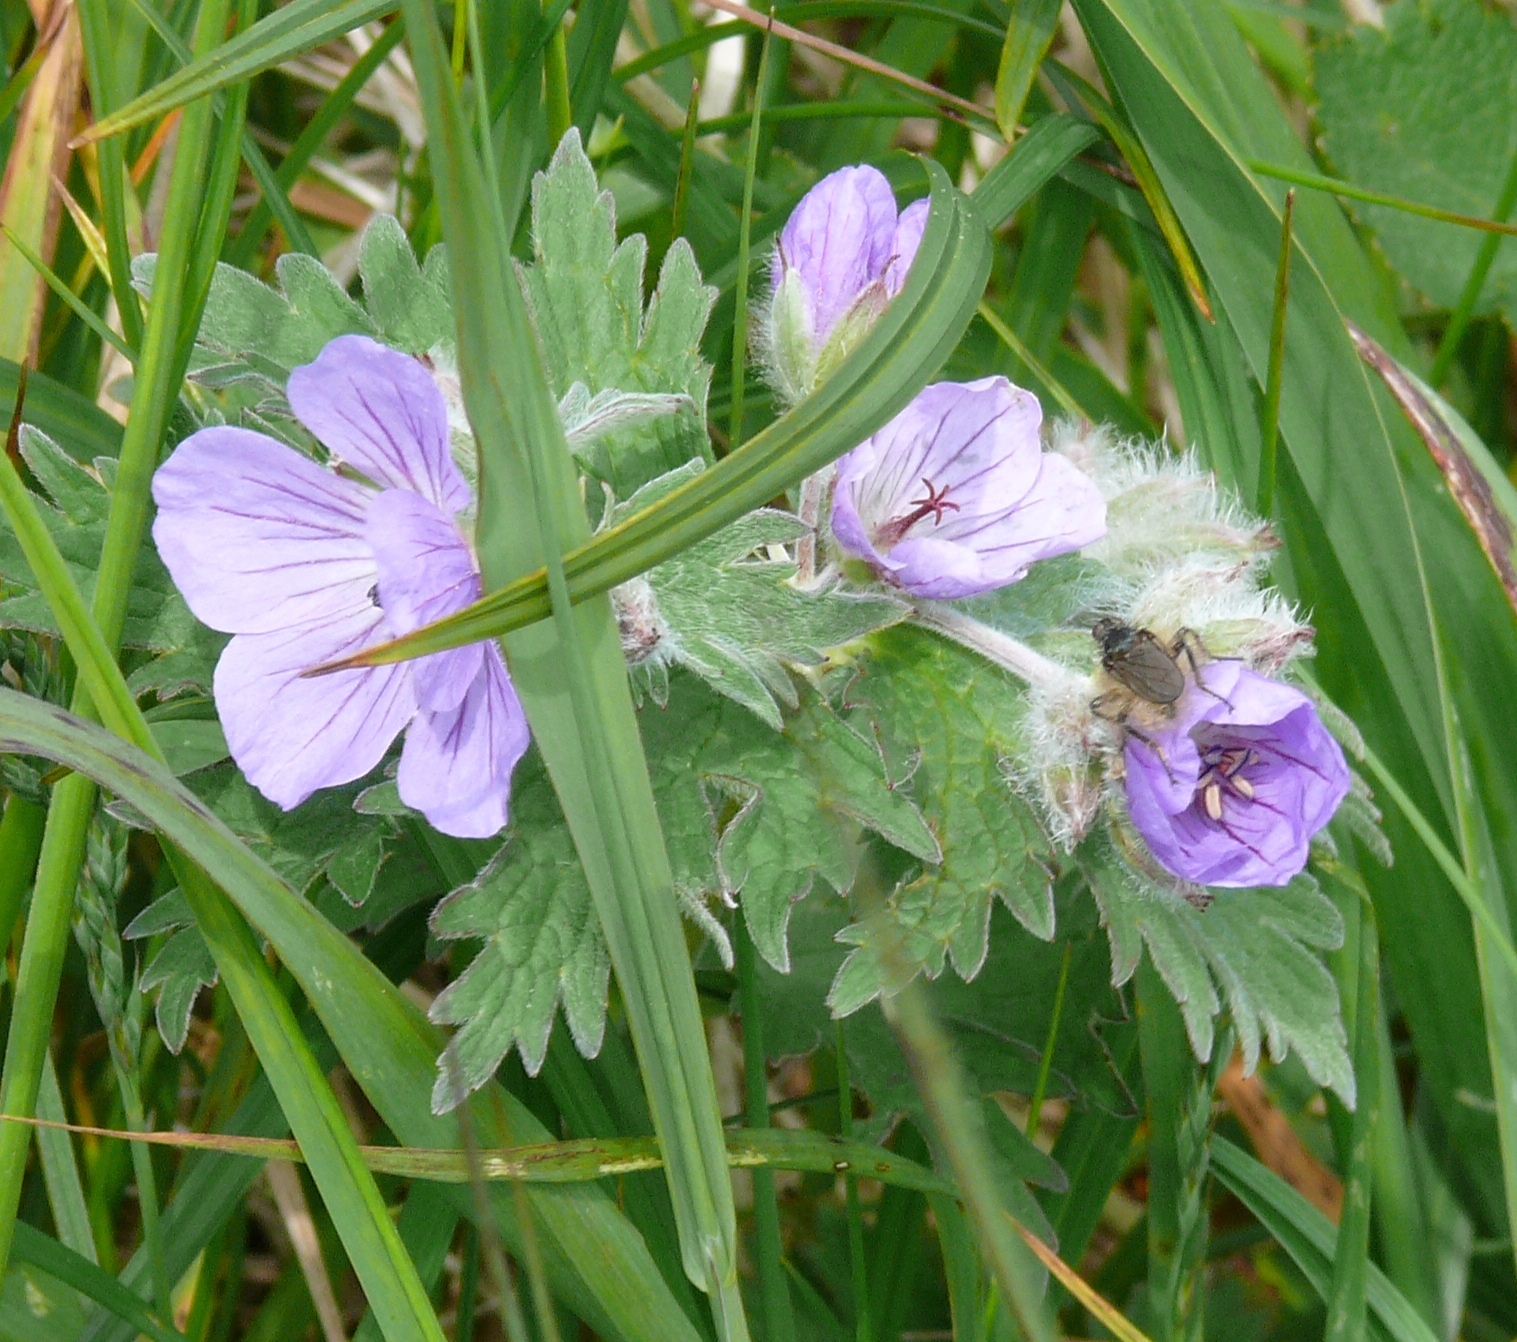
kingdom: Plantae
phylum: Tracheophyta
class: Magnoliopsida
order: Geraniales
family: Geraniaceae
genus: Geranium
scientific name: Geranium erianthum
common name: Northern crane's-bill
